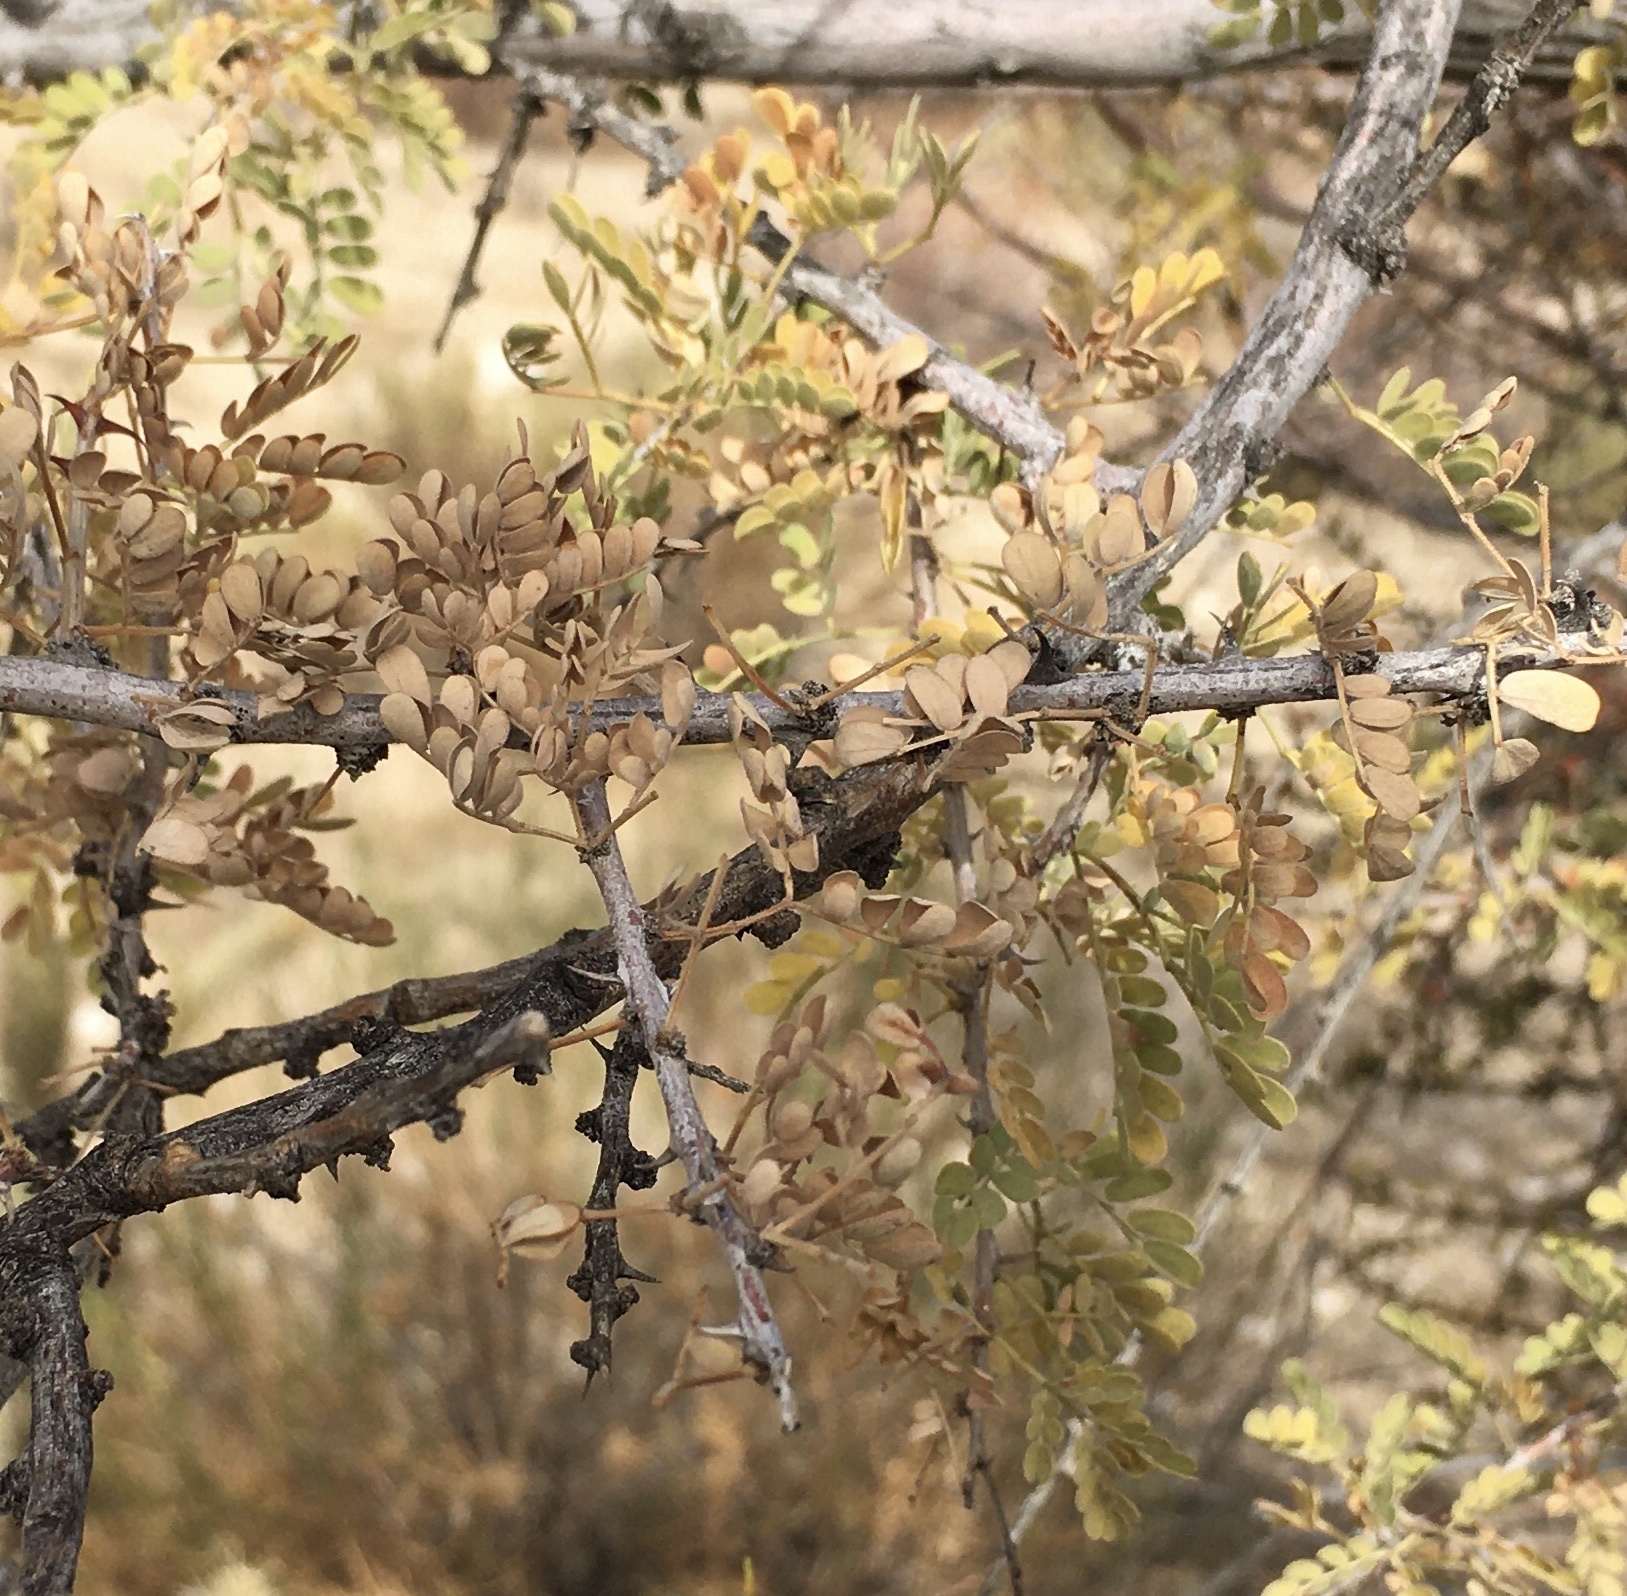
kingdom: Plantae
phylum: Tracheophyta
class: Magnoliopsida
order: Fabales
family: Fabaceae
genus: Senegalia
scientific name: Senegalia greggii
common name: Texas-mimosa
